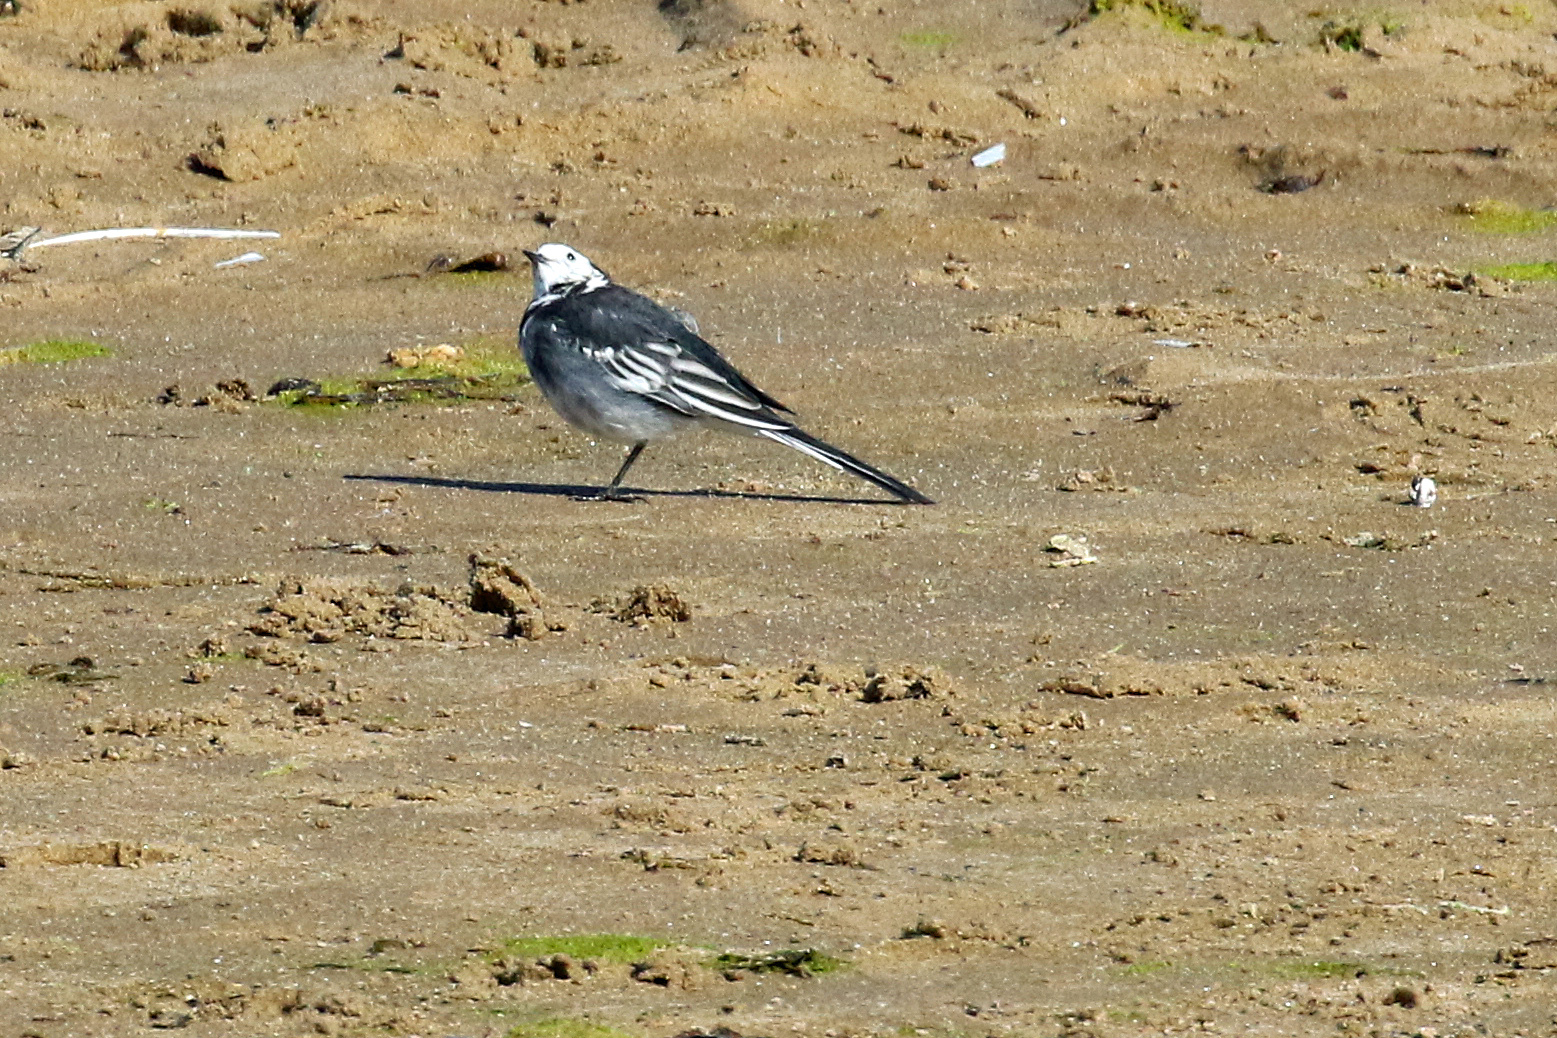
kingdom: Animalia
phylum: Chordata
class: Aves
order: Passeriformes
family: Motacillidae
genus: Motacilla
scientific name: Motacilla alba
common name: White wagtail
